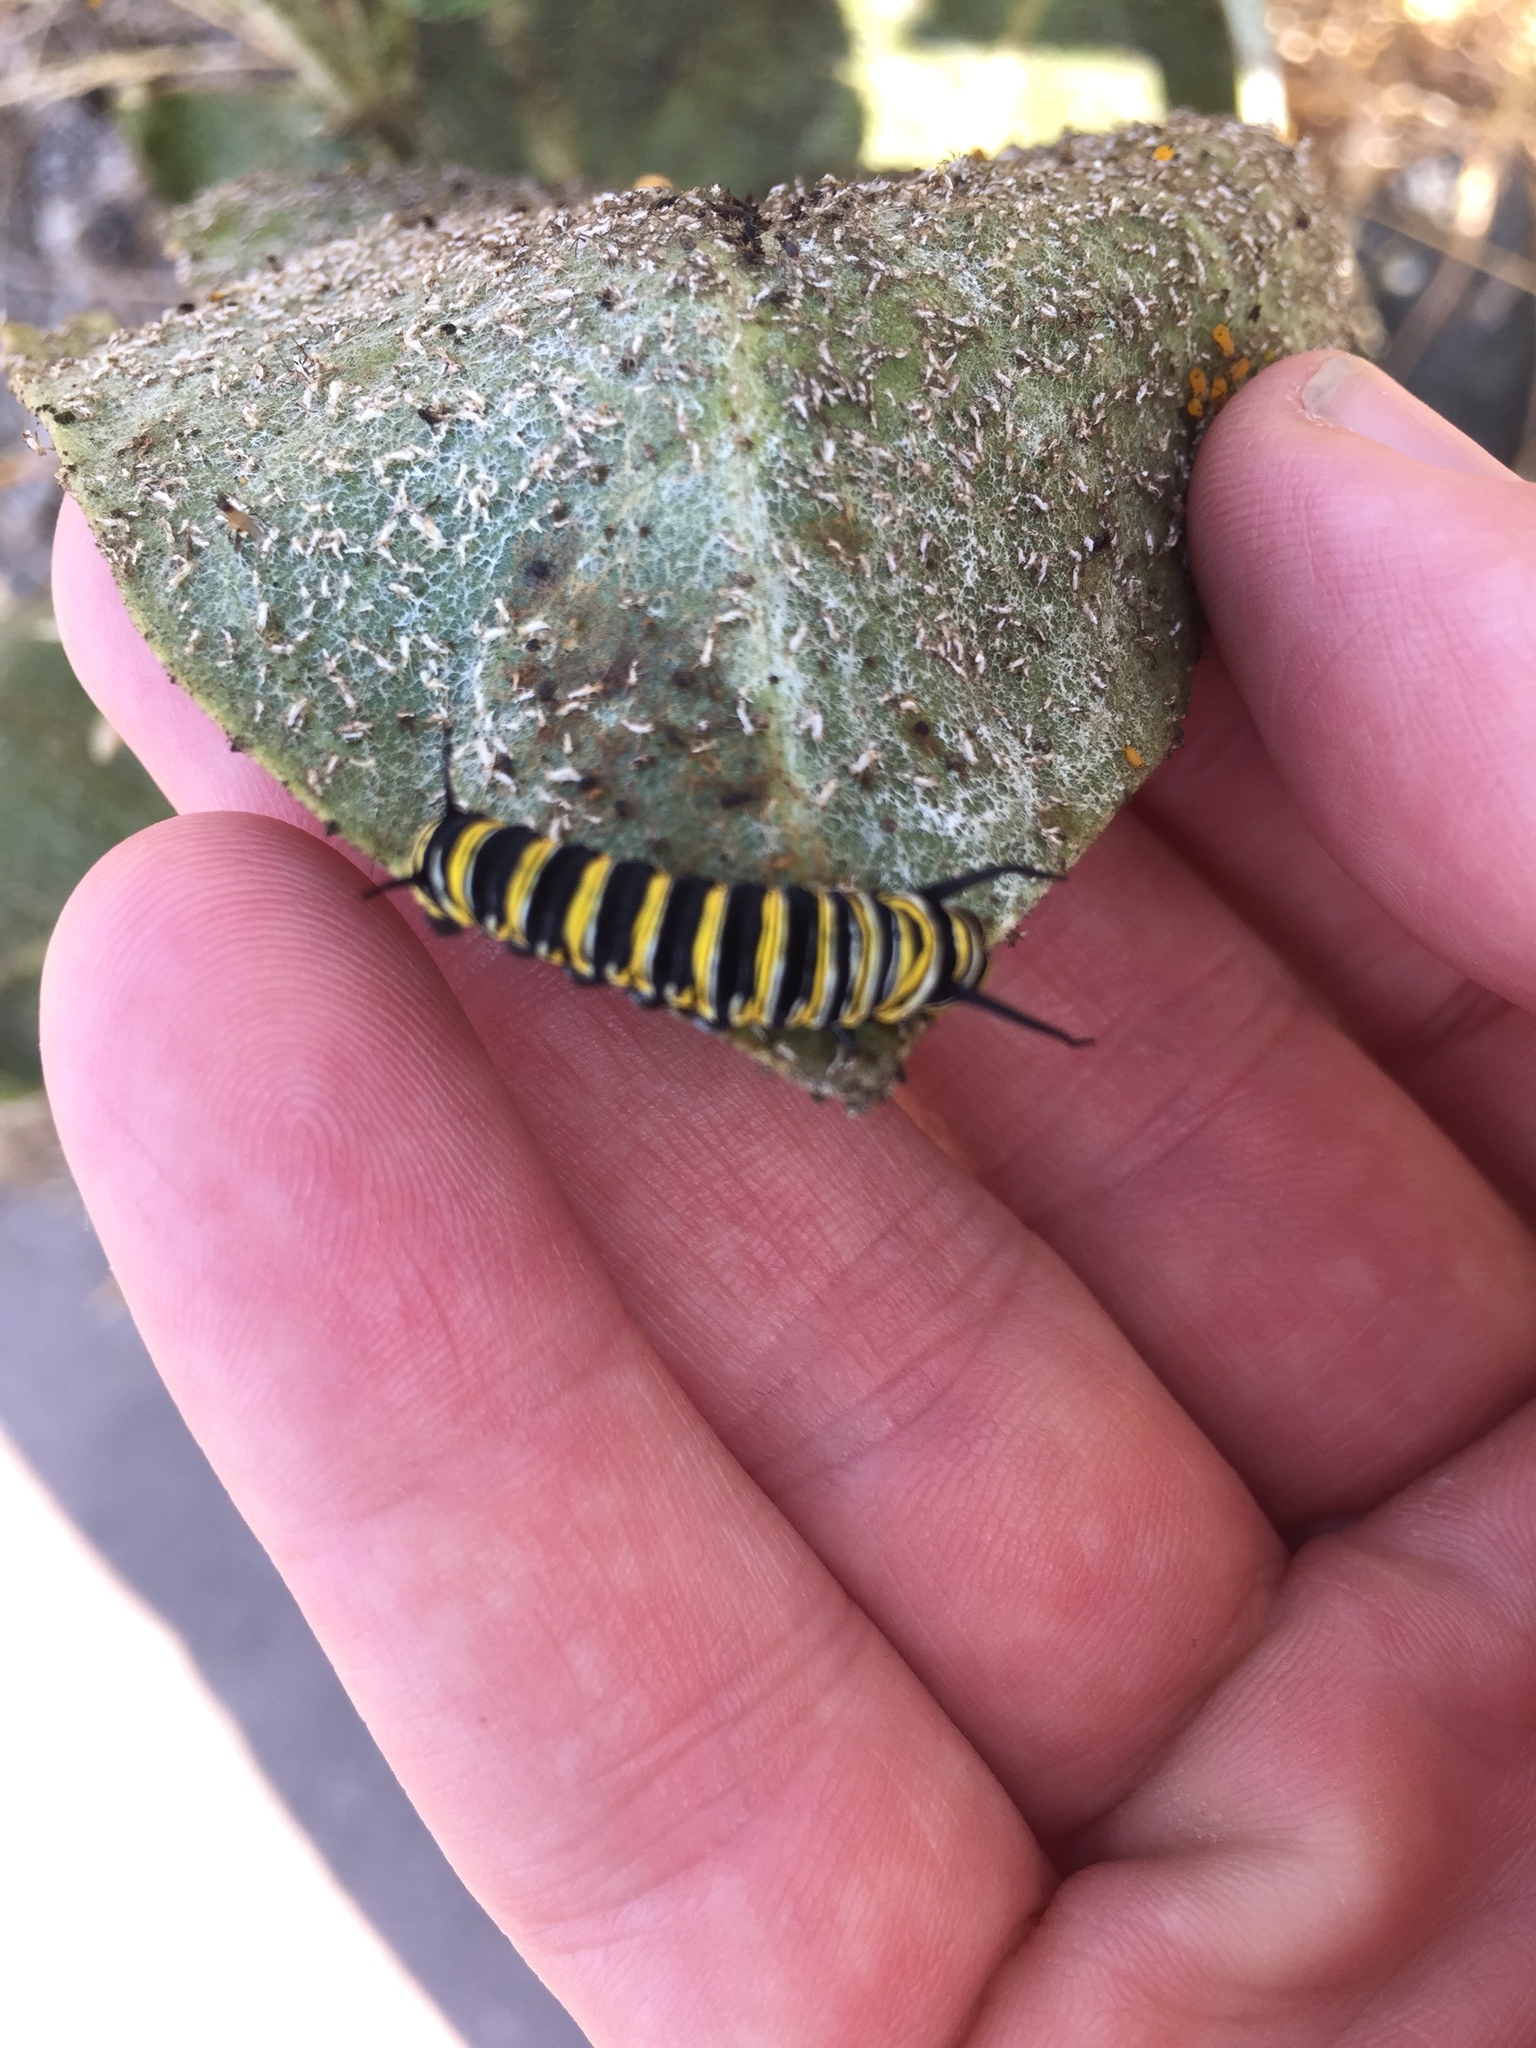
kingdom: Animalia
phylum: Arthropoda
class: Insecta
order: Lepidoptera
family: Nymphalidae
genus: Danaus
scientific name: Danaus plexippus
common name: Monarch
